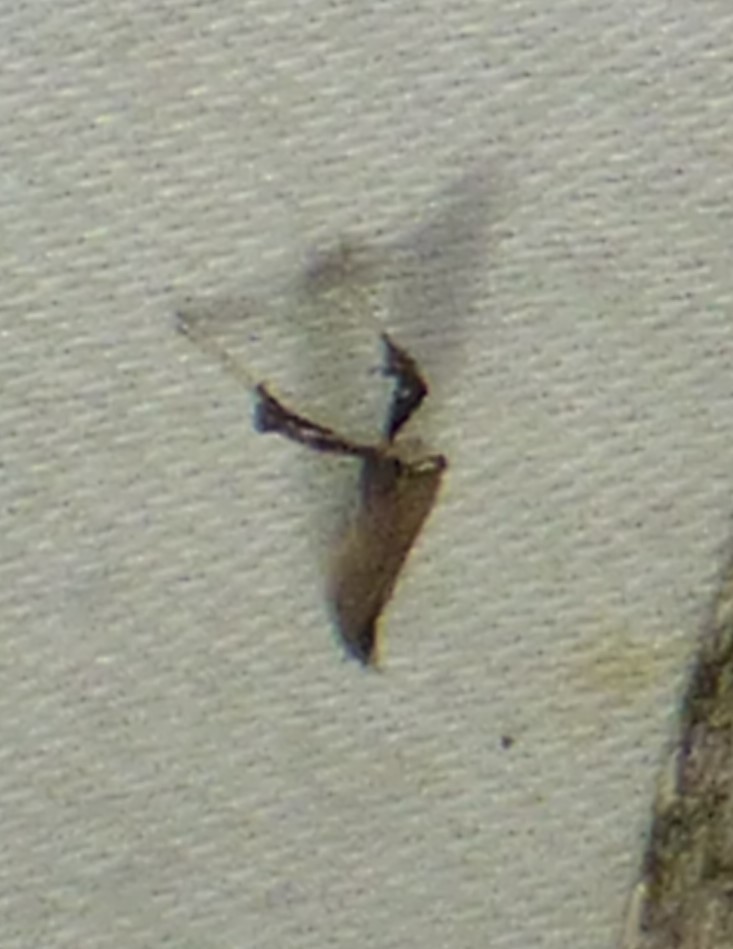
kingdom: Animalia
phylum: Arthropoda
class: Insecta
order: Lepidoptera
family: Gracillariidae
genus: Caloptilia
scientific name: Caloptilia rhoifoliella
